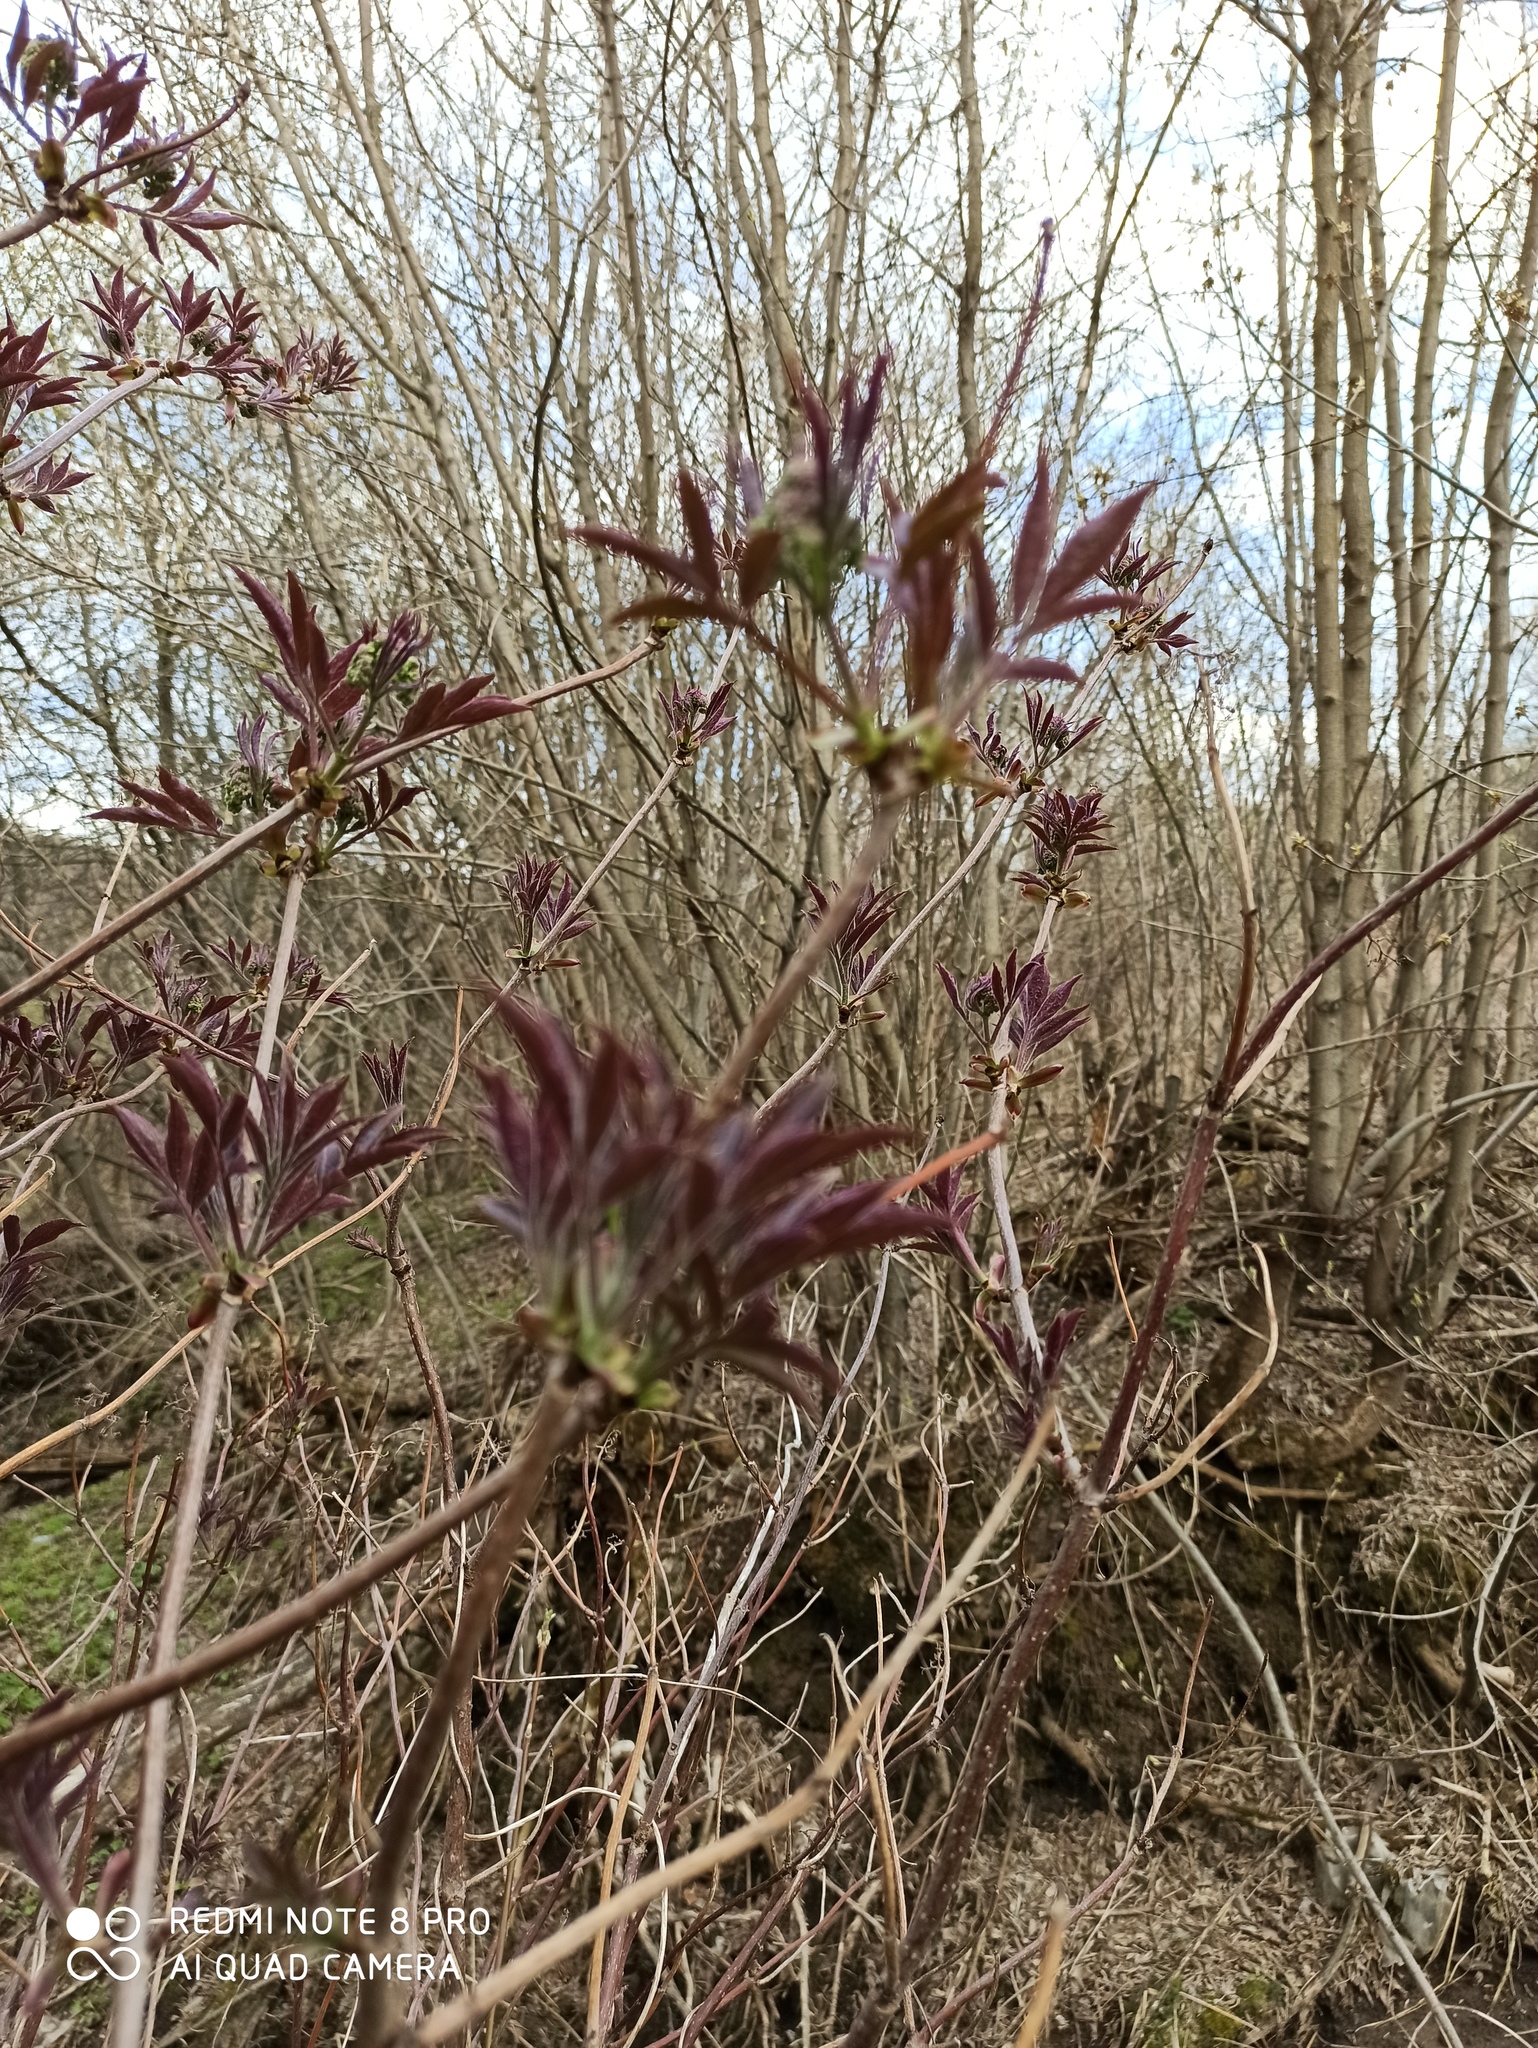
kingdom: Plantae
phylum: Tracheophyta
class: Magnoliopsida
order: Dipsacales
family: Viburnaceae
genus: Sambucus
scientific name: Sambucus racemosa
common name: Red-berried elder
